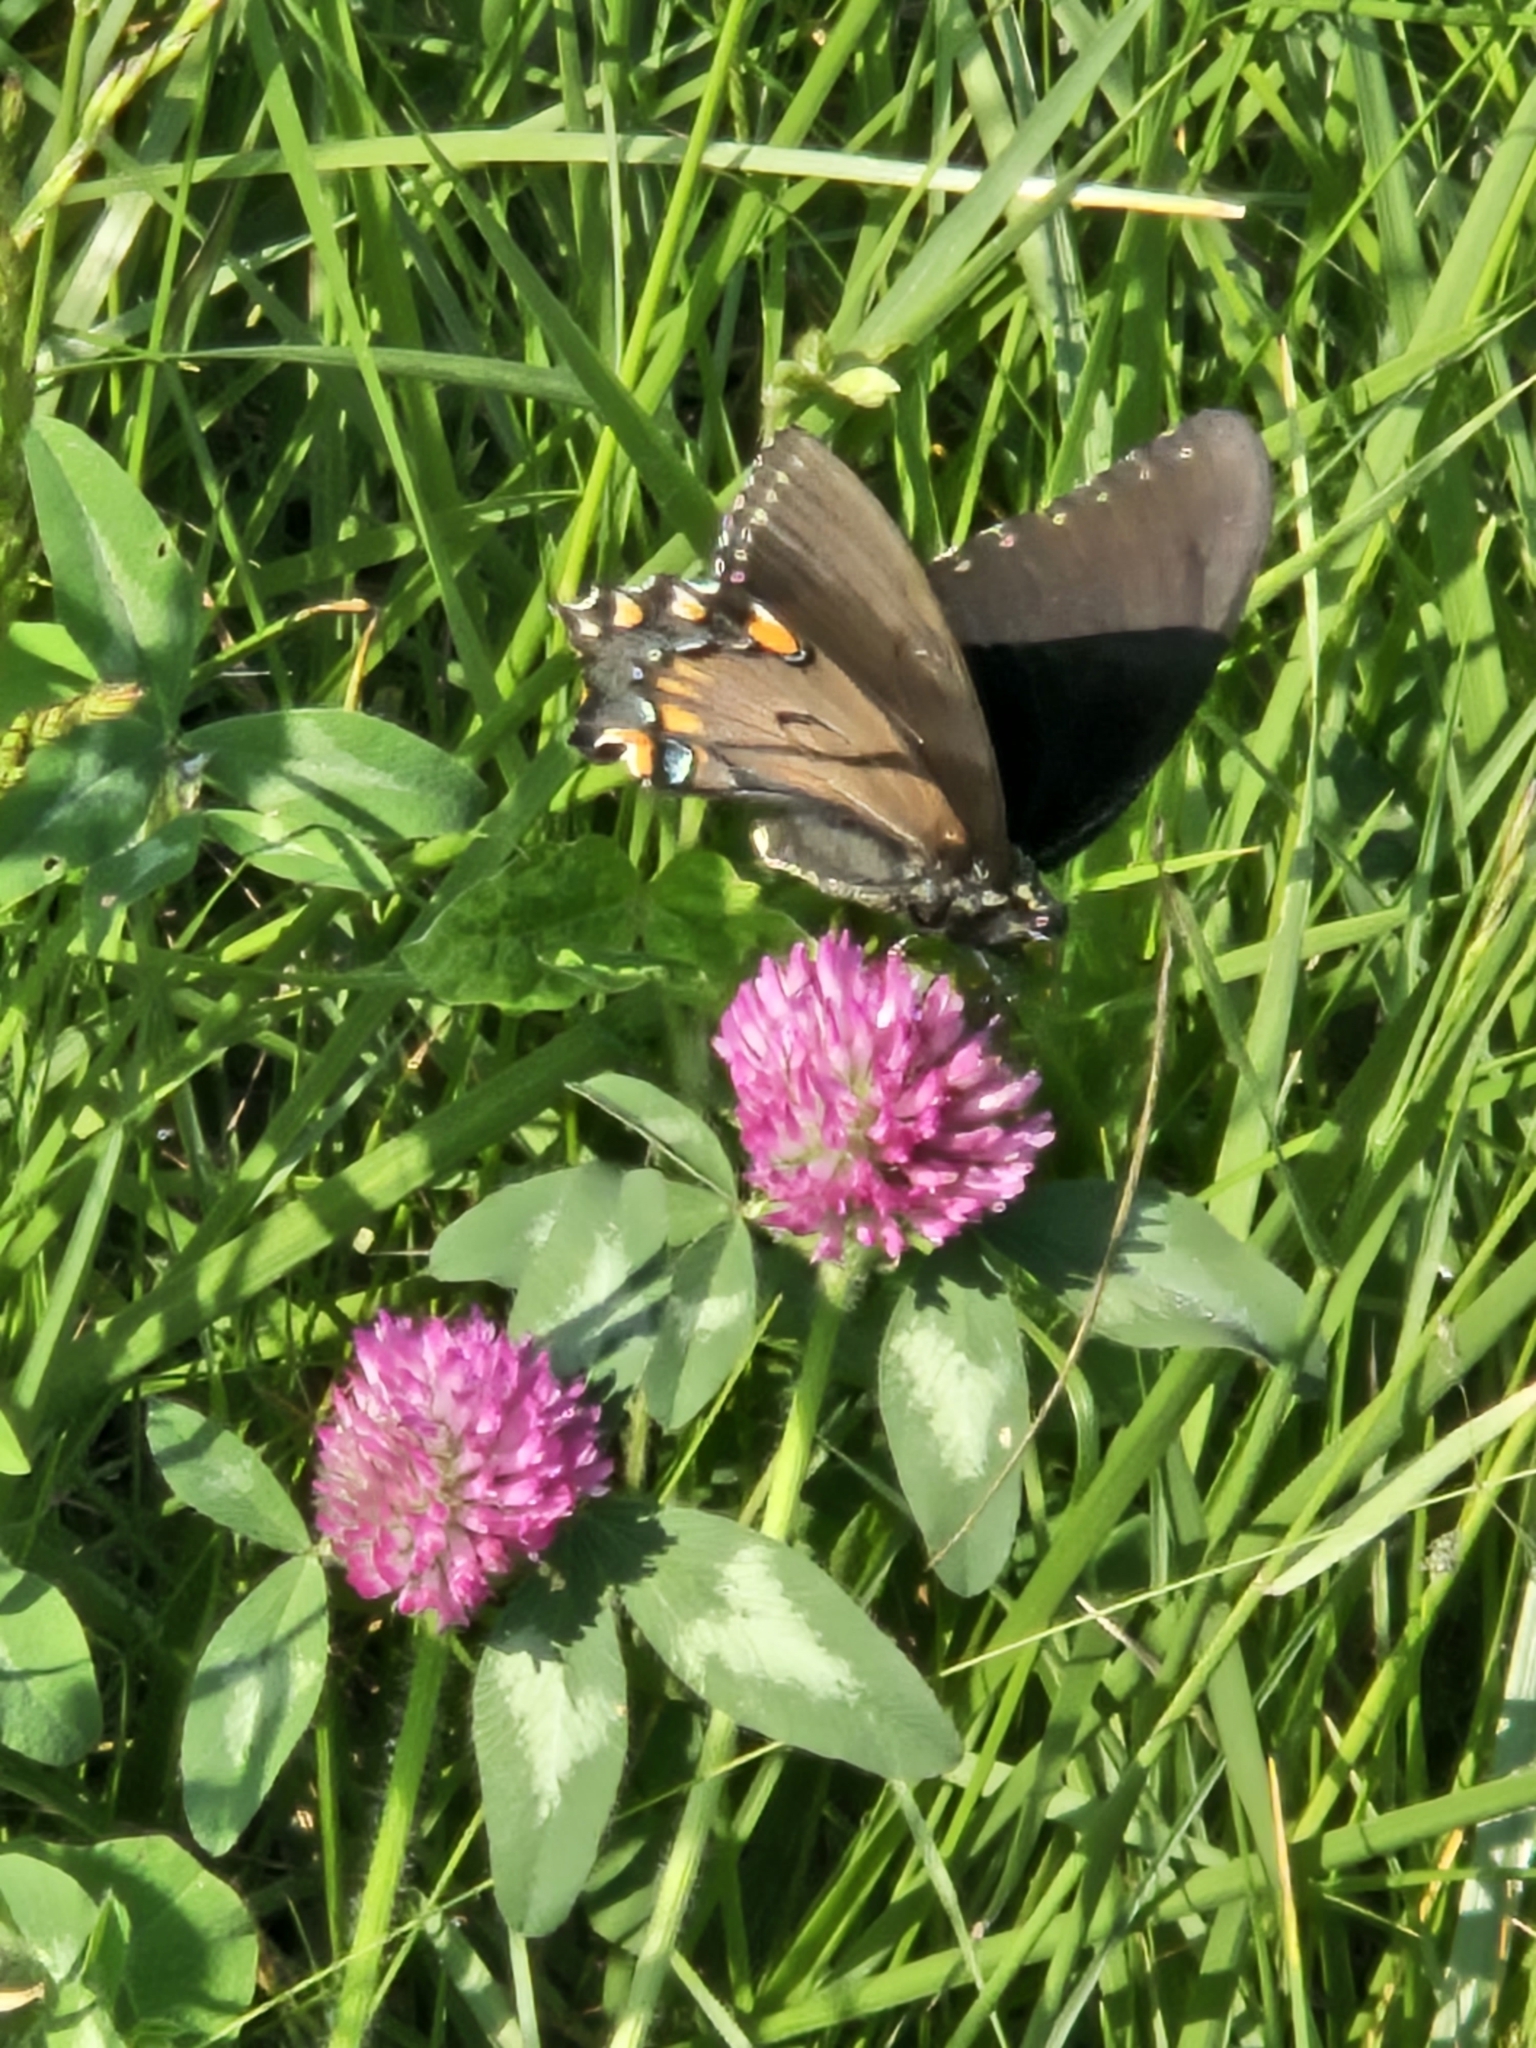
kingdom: Animalia
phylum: Arthropoda
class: Insecta
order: Lepidoptera
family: Papilionidae
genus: Papilio
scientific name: Papilio glaucus
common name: Tiger swallowtail
